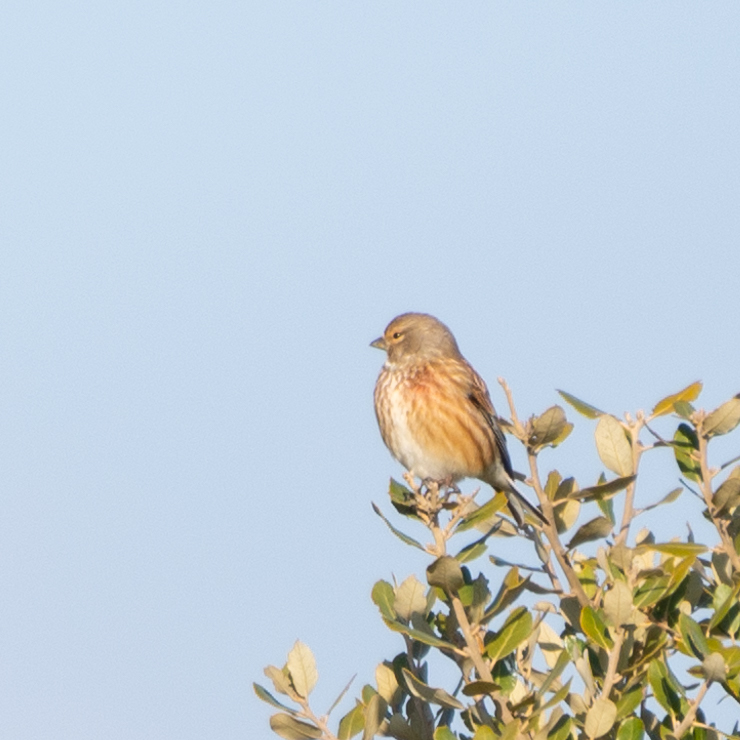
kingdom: Animalia
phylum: Chordata
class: Aves
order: Passeriformes
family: Fringillidae
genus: Linaria
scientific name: Linaria cannabina
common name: Common linnet
